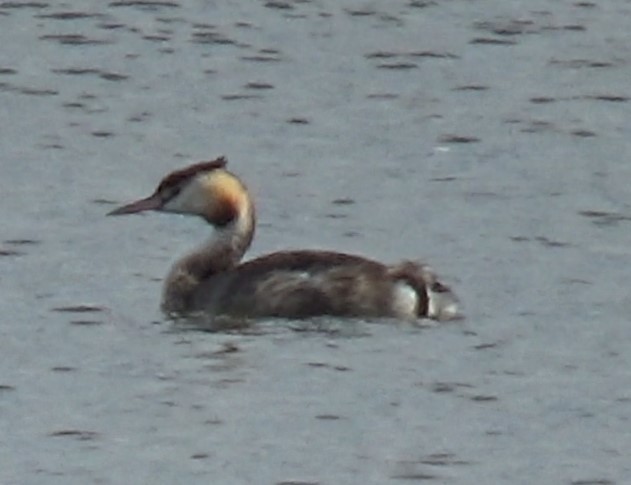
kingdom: Animalia
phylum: Chordata
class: Aves
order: Podicipediformes
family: Podicipedidae
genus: Podiceps
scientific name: Podiceps cristatus
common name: Great crested grebe
